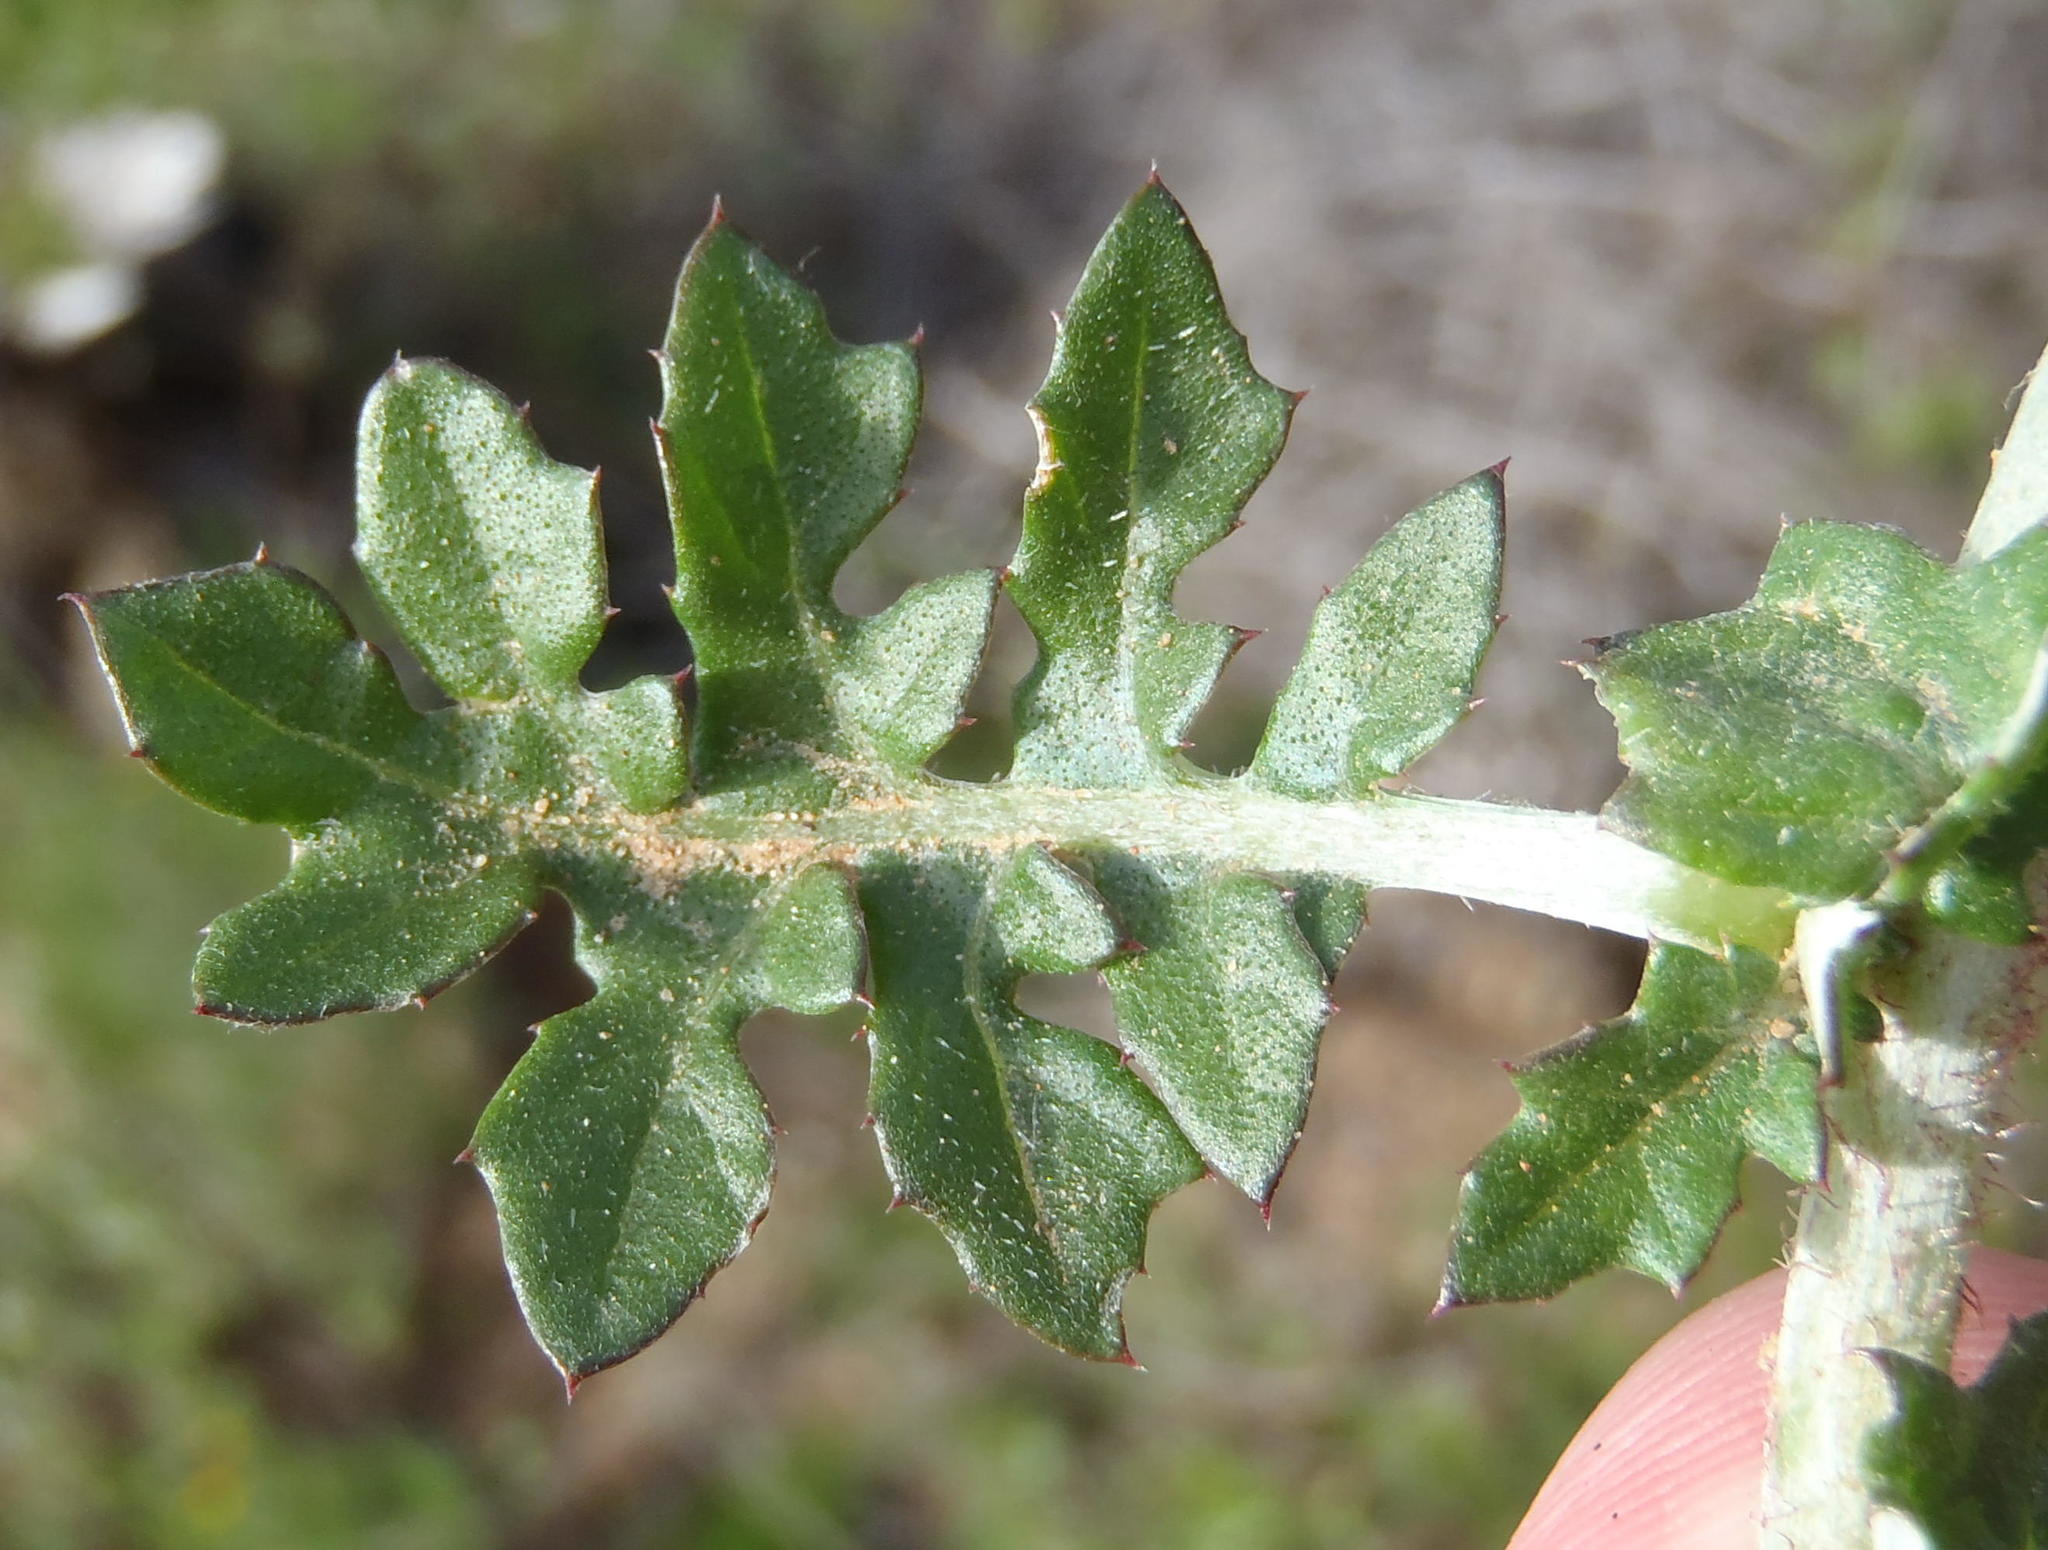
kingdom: Plantae
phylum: Tracheophyta
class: Magnoliopsida
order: Asterales
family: Asteraceae
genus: Arctotheca
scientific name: Arctotheca prostrata
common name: Capeweed
